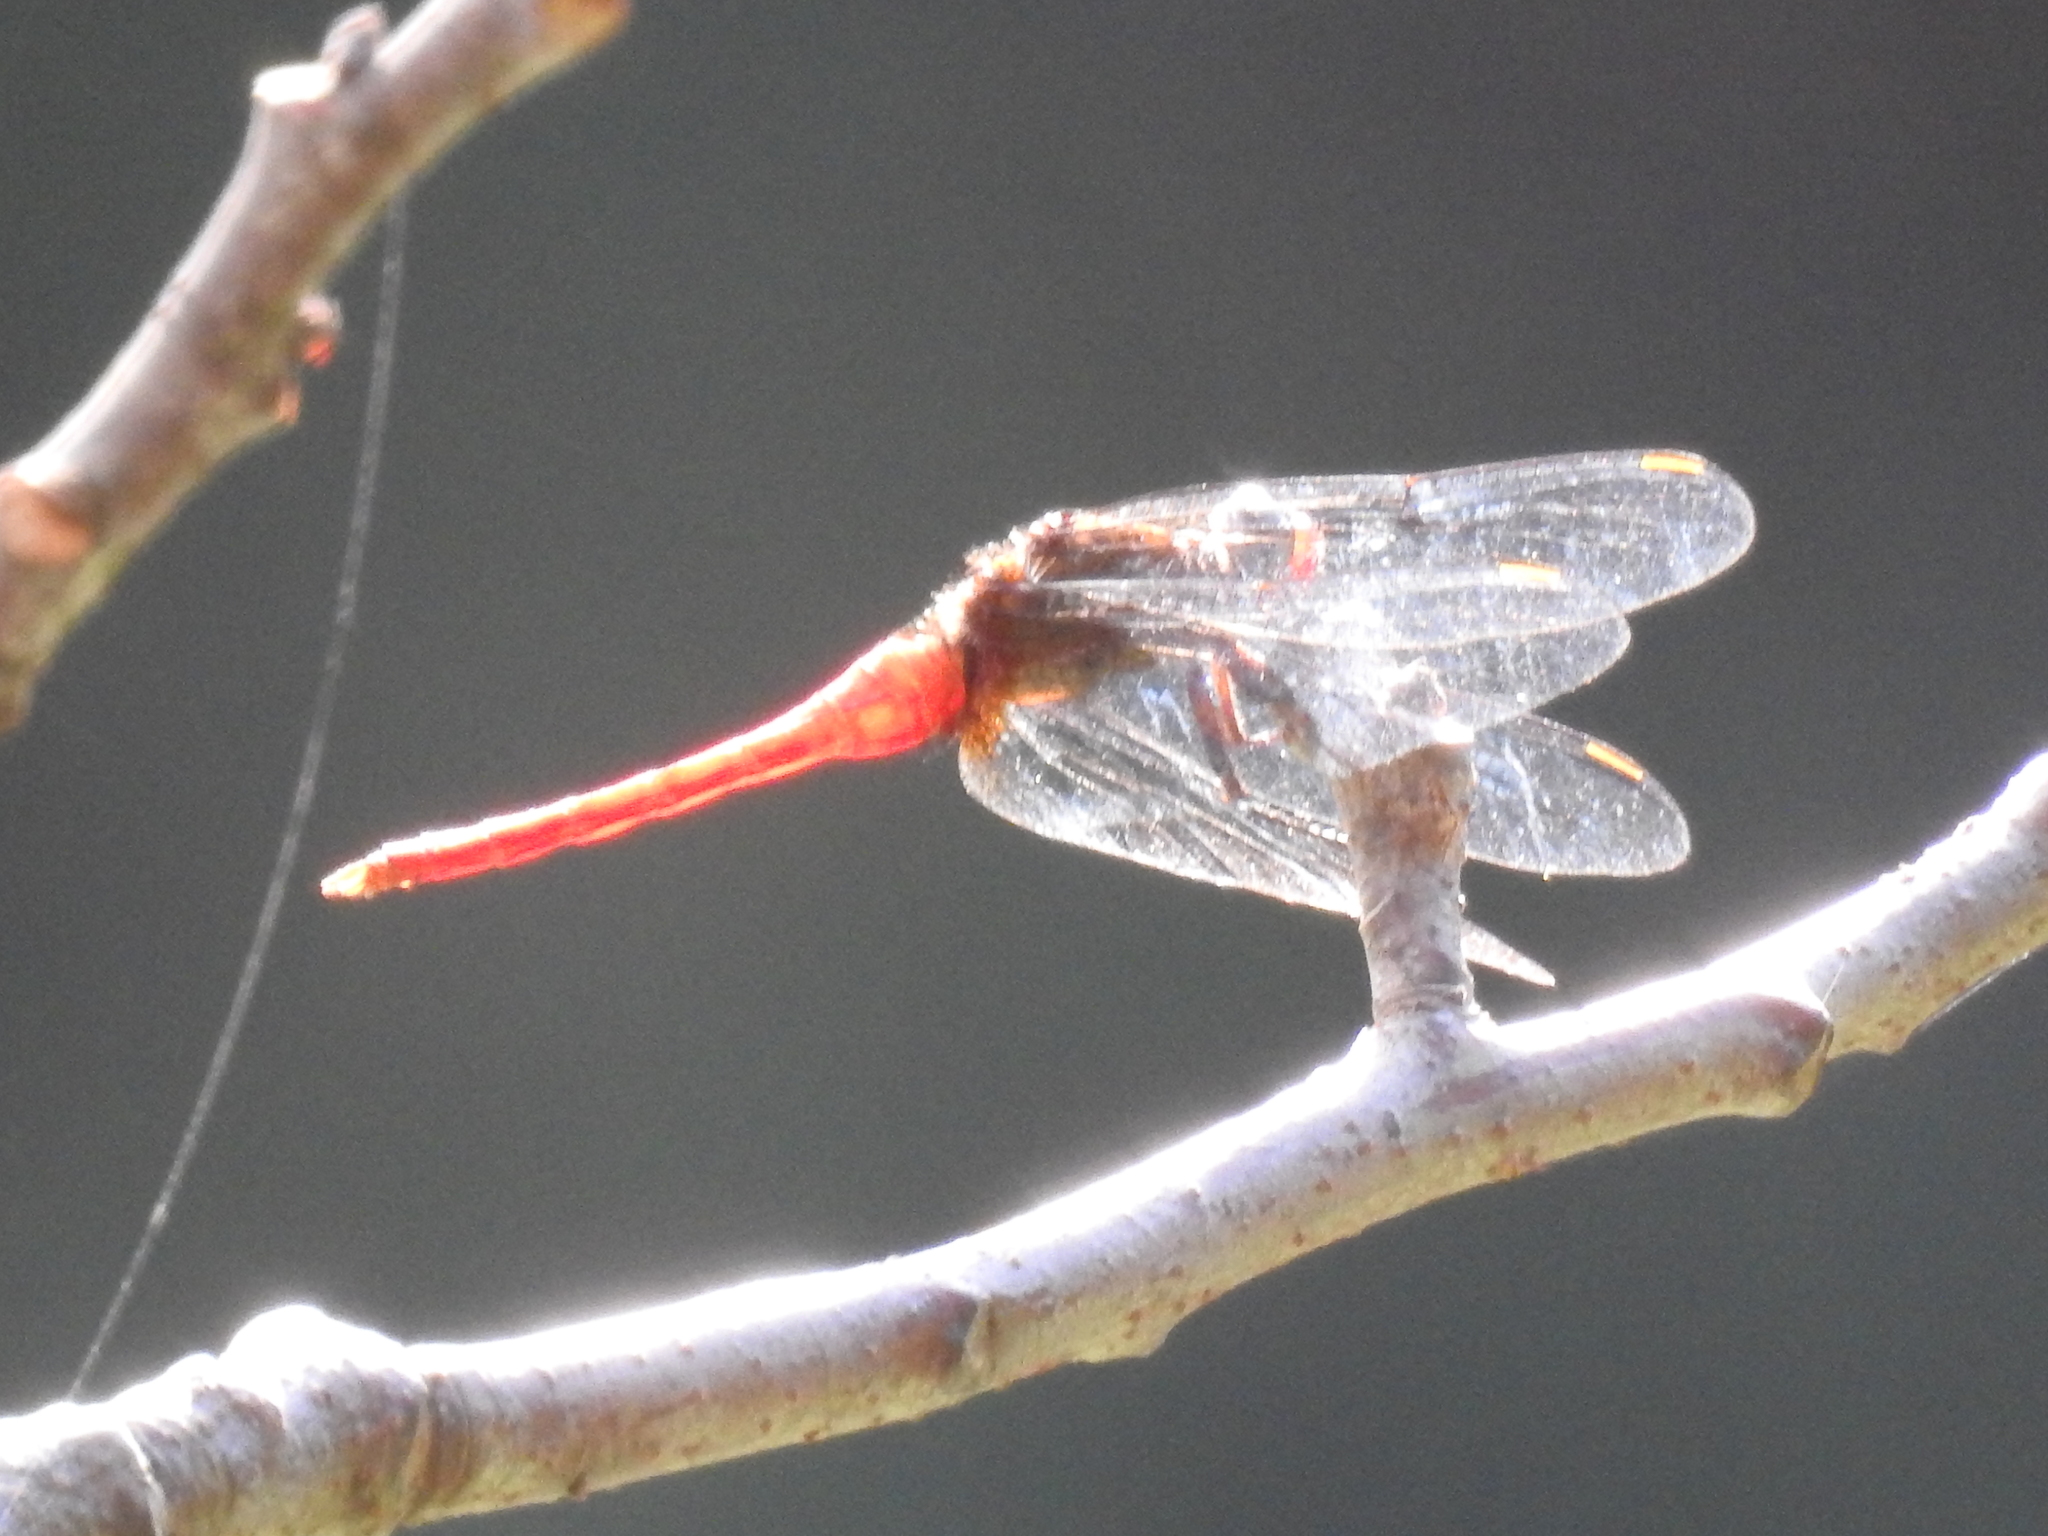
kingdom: Animalia
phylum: Arthropoda
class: Insecta
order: Odonata
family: Libellulidae
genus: Orthetrum
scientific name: Orthetrum chrysis
